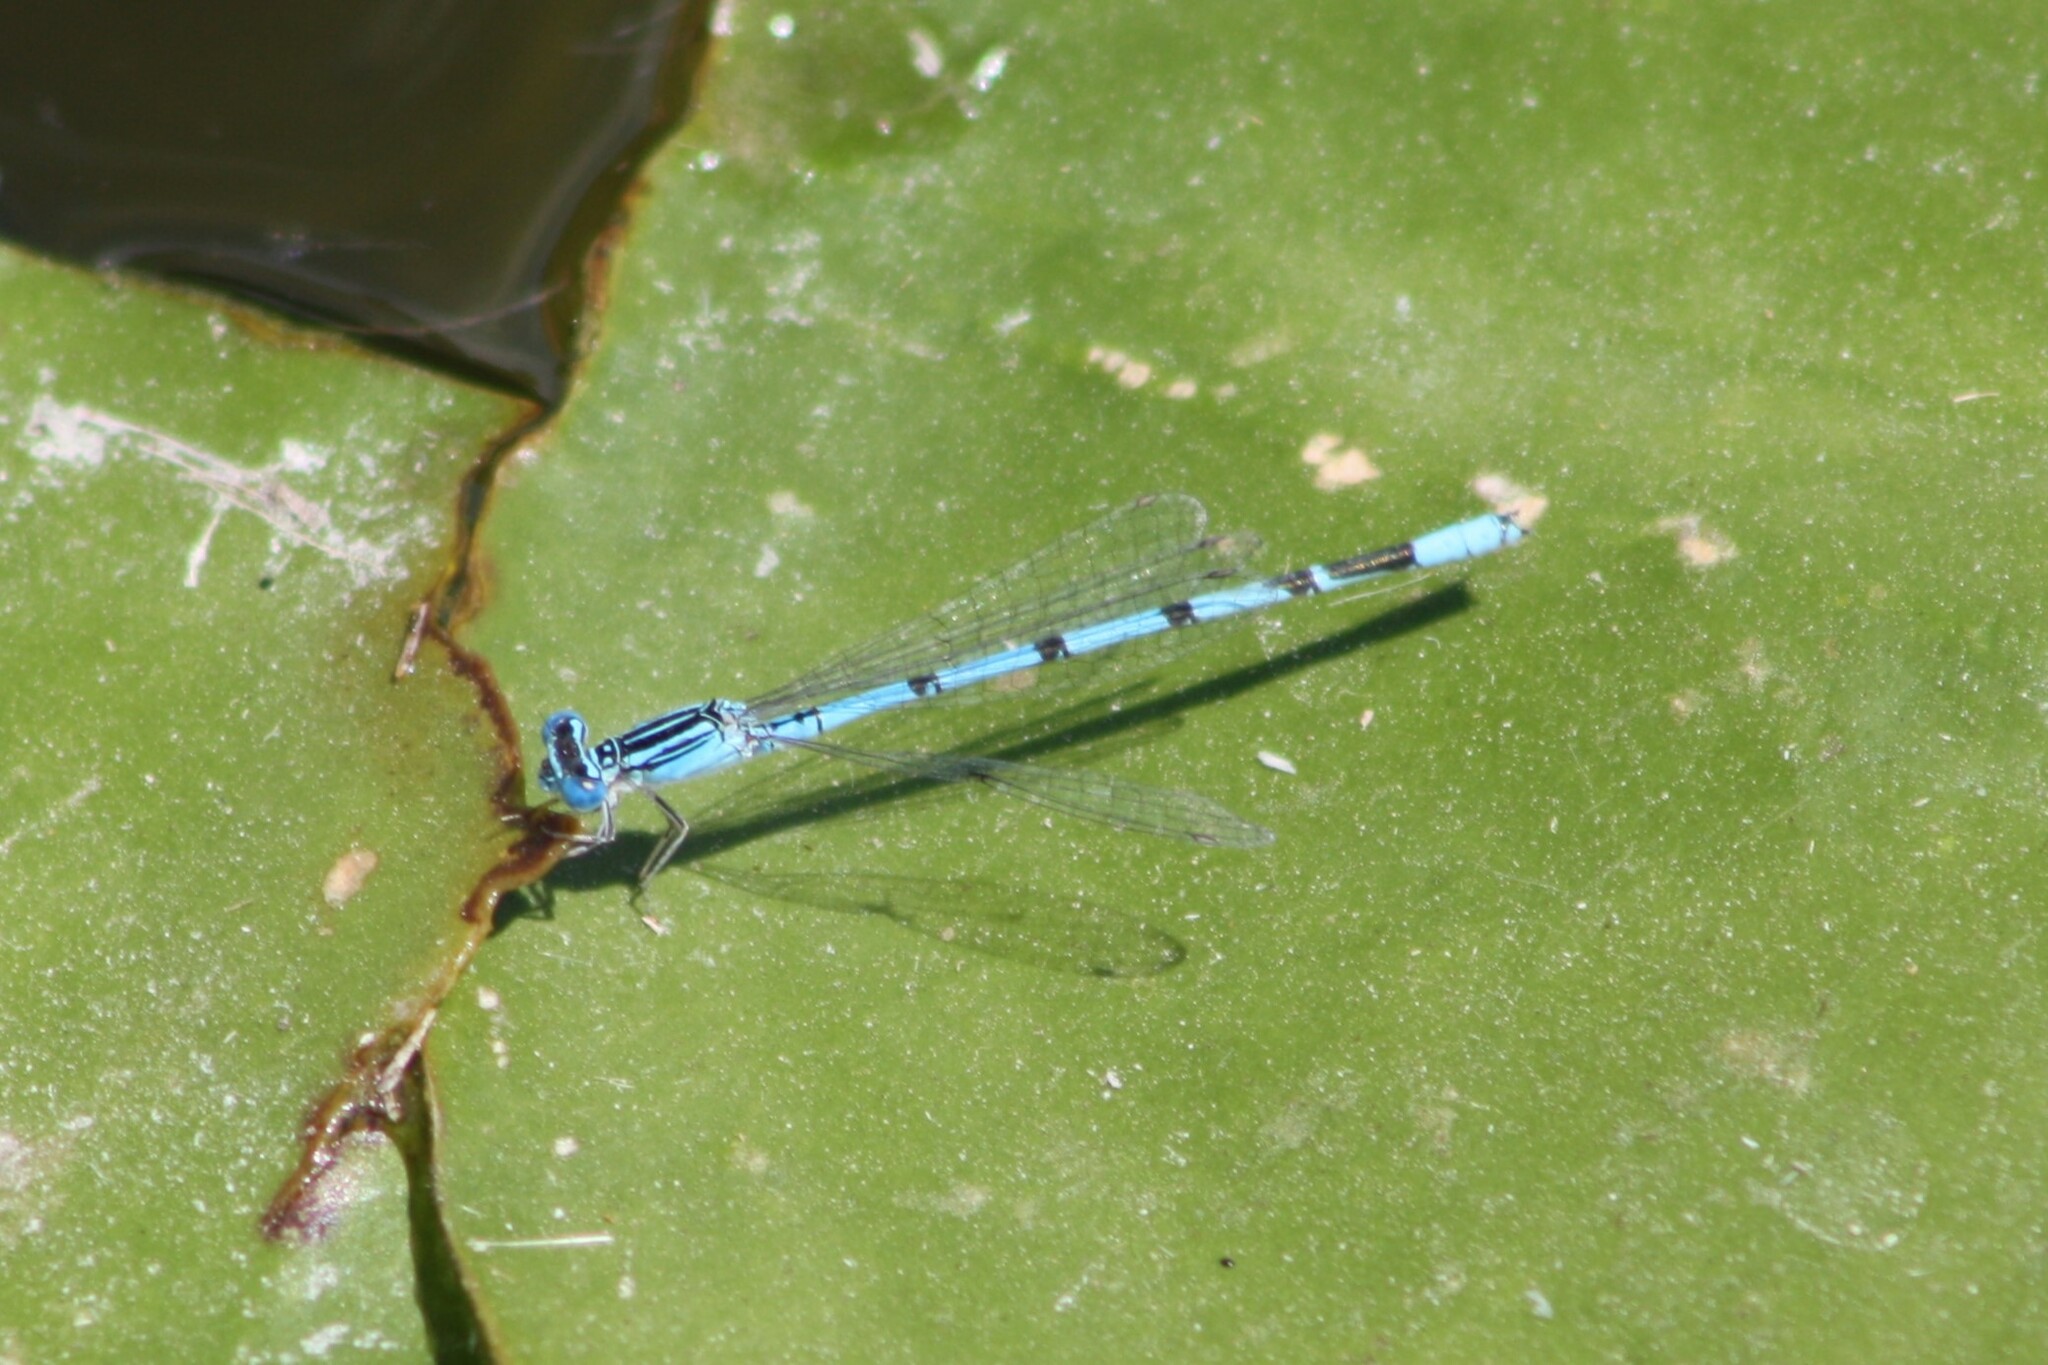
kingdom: Animalia
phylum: Arthropoda
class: Insecta
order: Odonata
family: Coenagrionidae
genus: Enallagma
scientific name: Enallagma basidens
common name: Double-striped bluet
